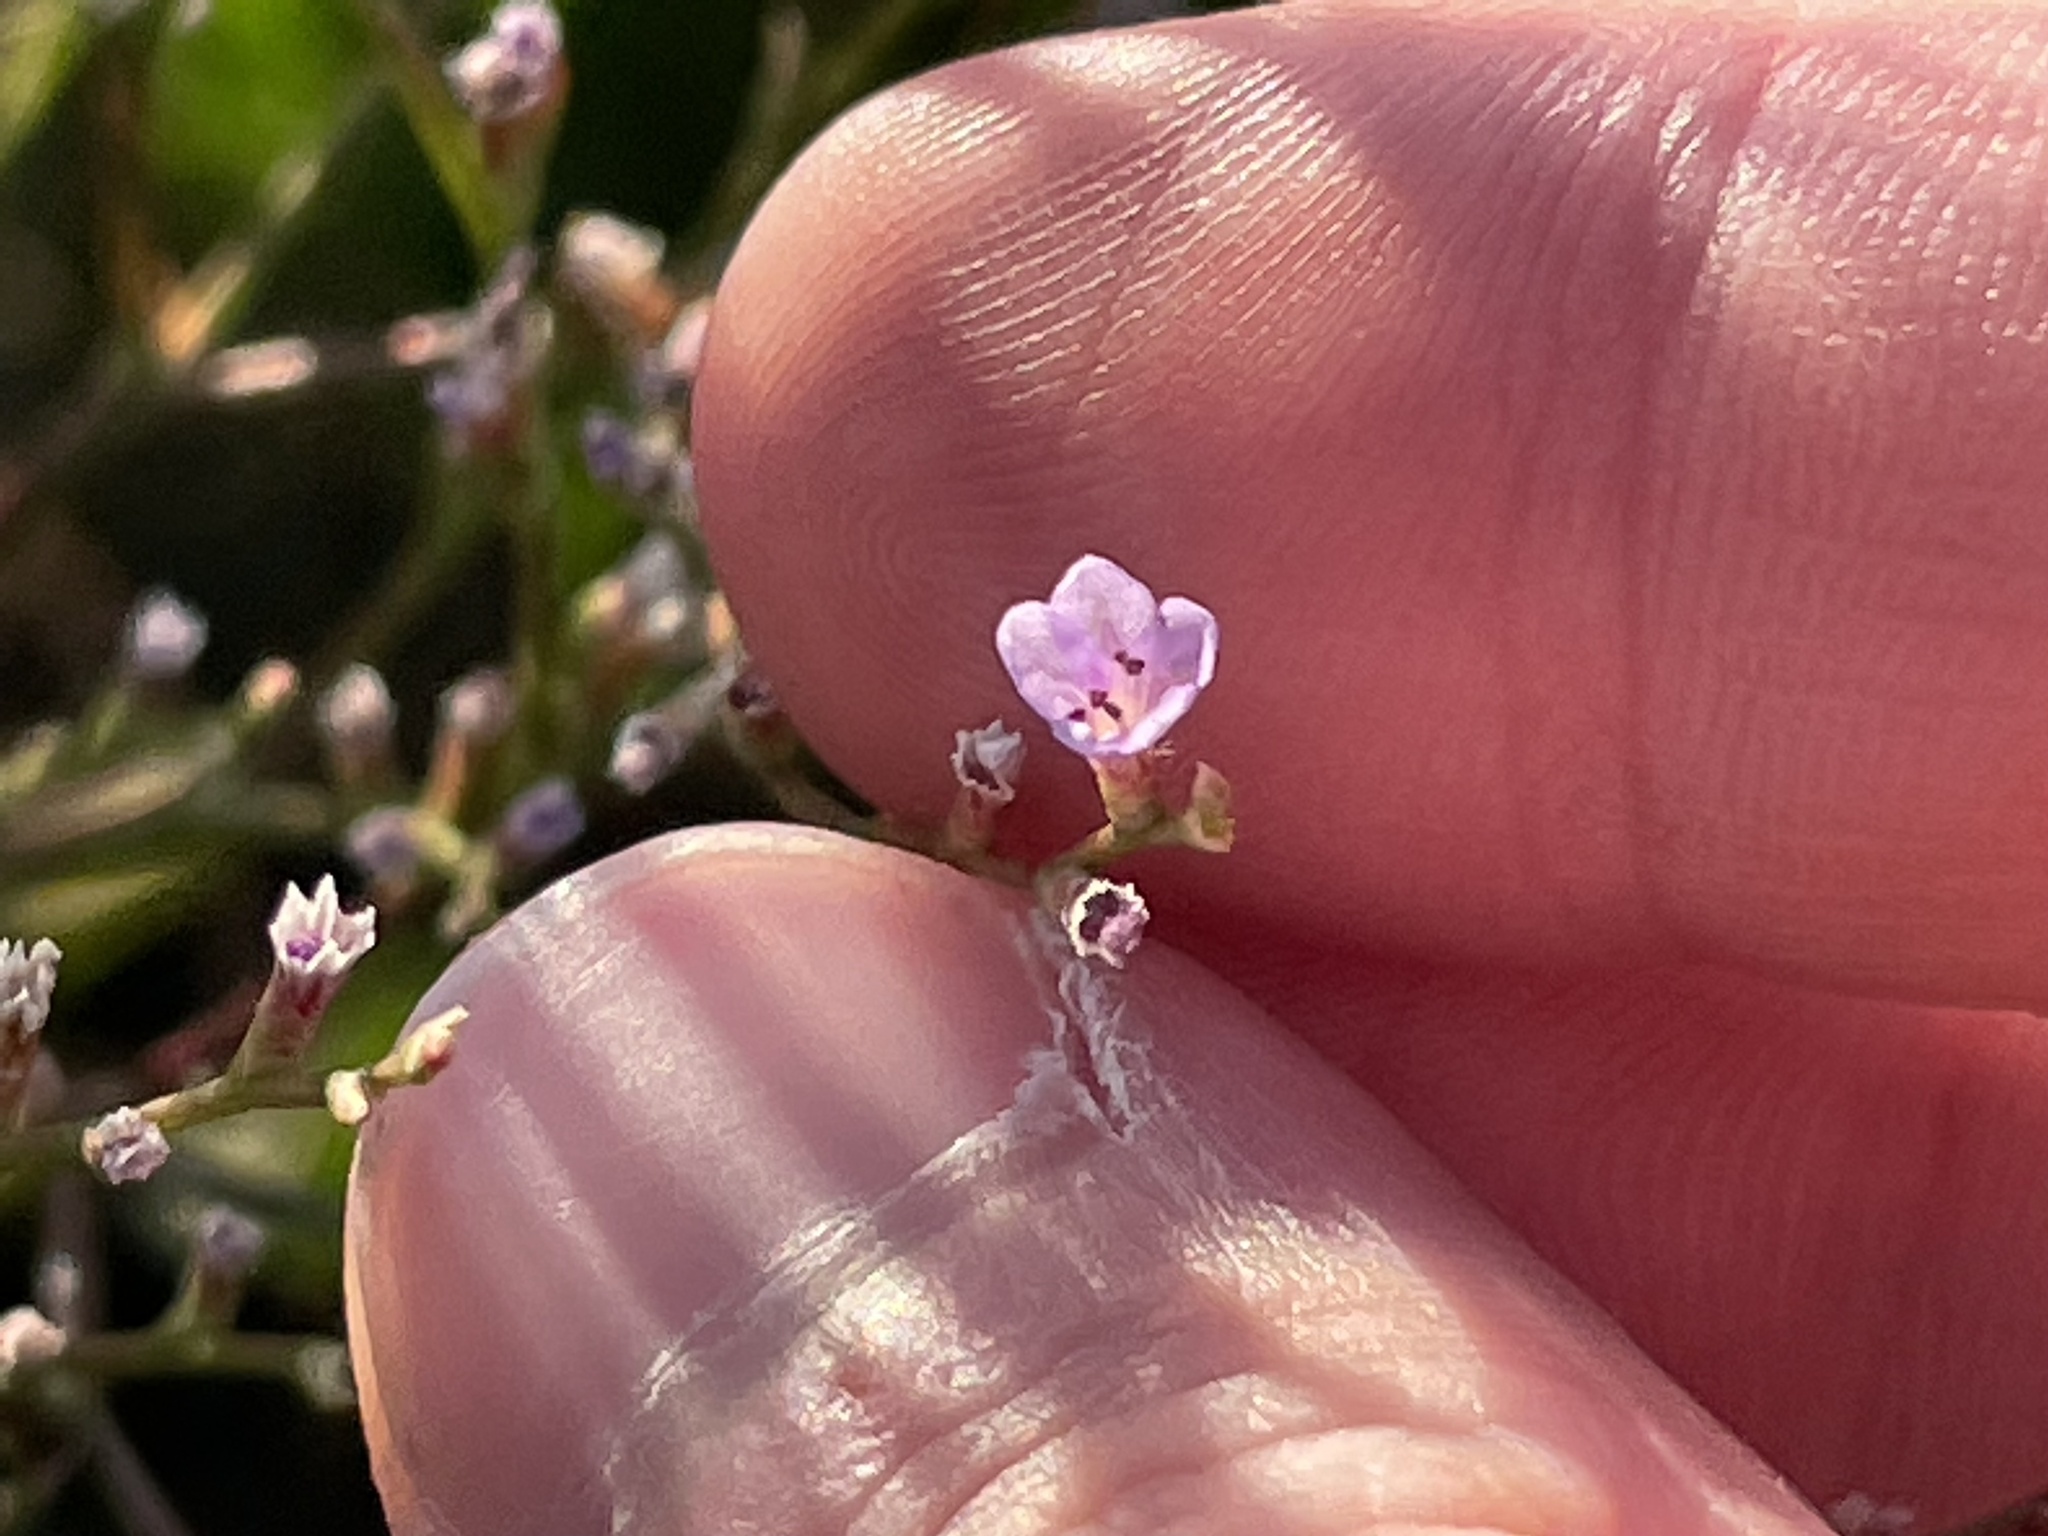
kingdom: Plantae
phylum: Tracheophyta
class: Magnoliopsida
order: Caryophyllales
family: Plumbaginaceae
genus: Limonium
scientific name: Limonium carolinianum
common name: Carolina sea lavender
